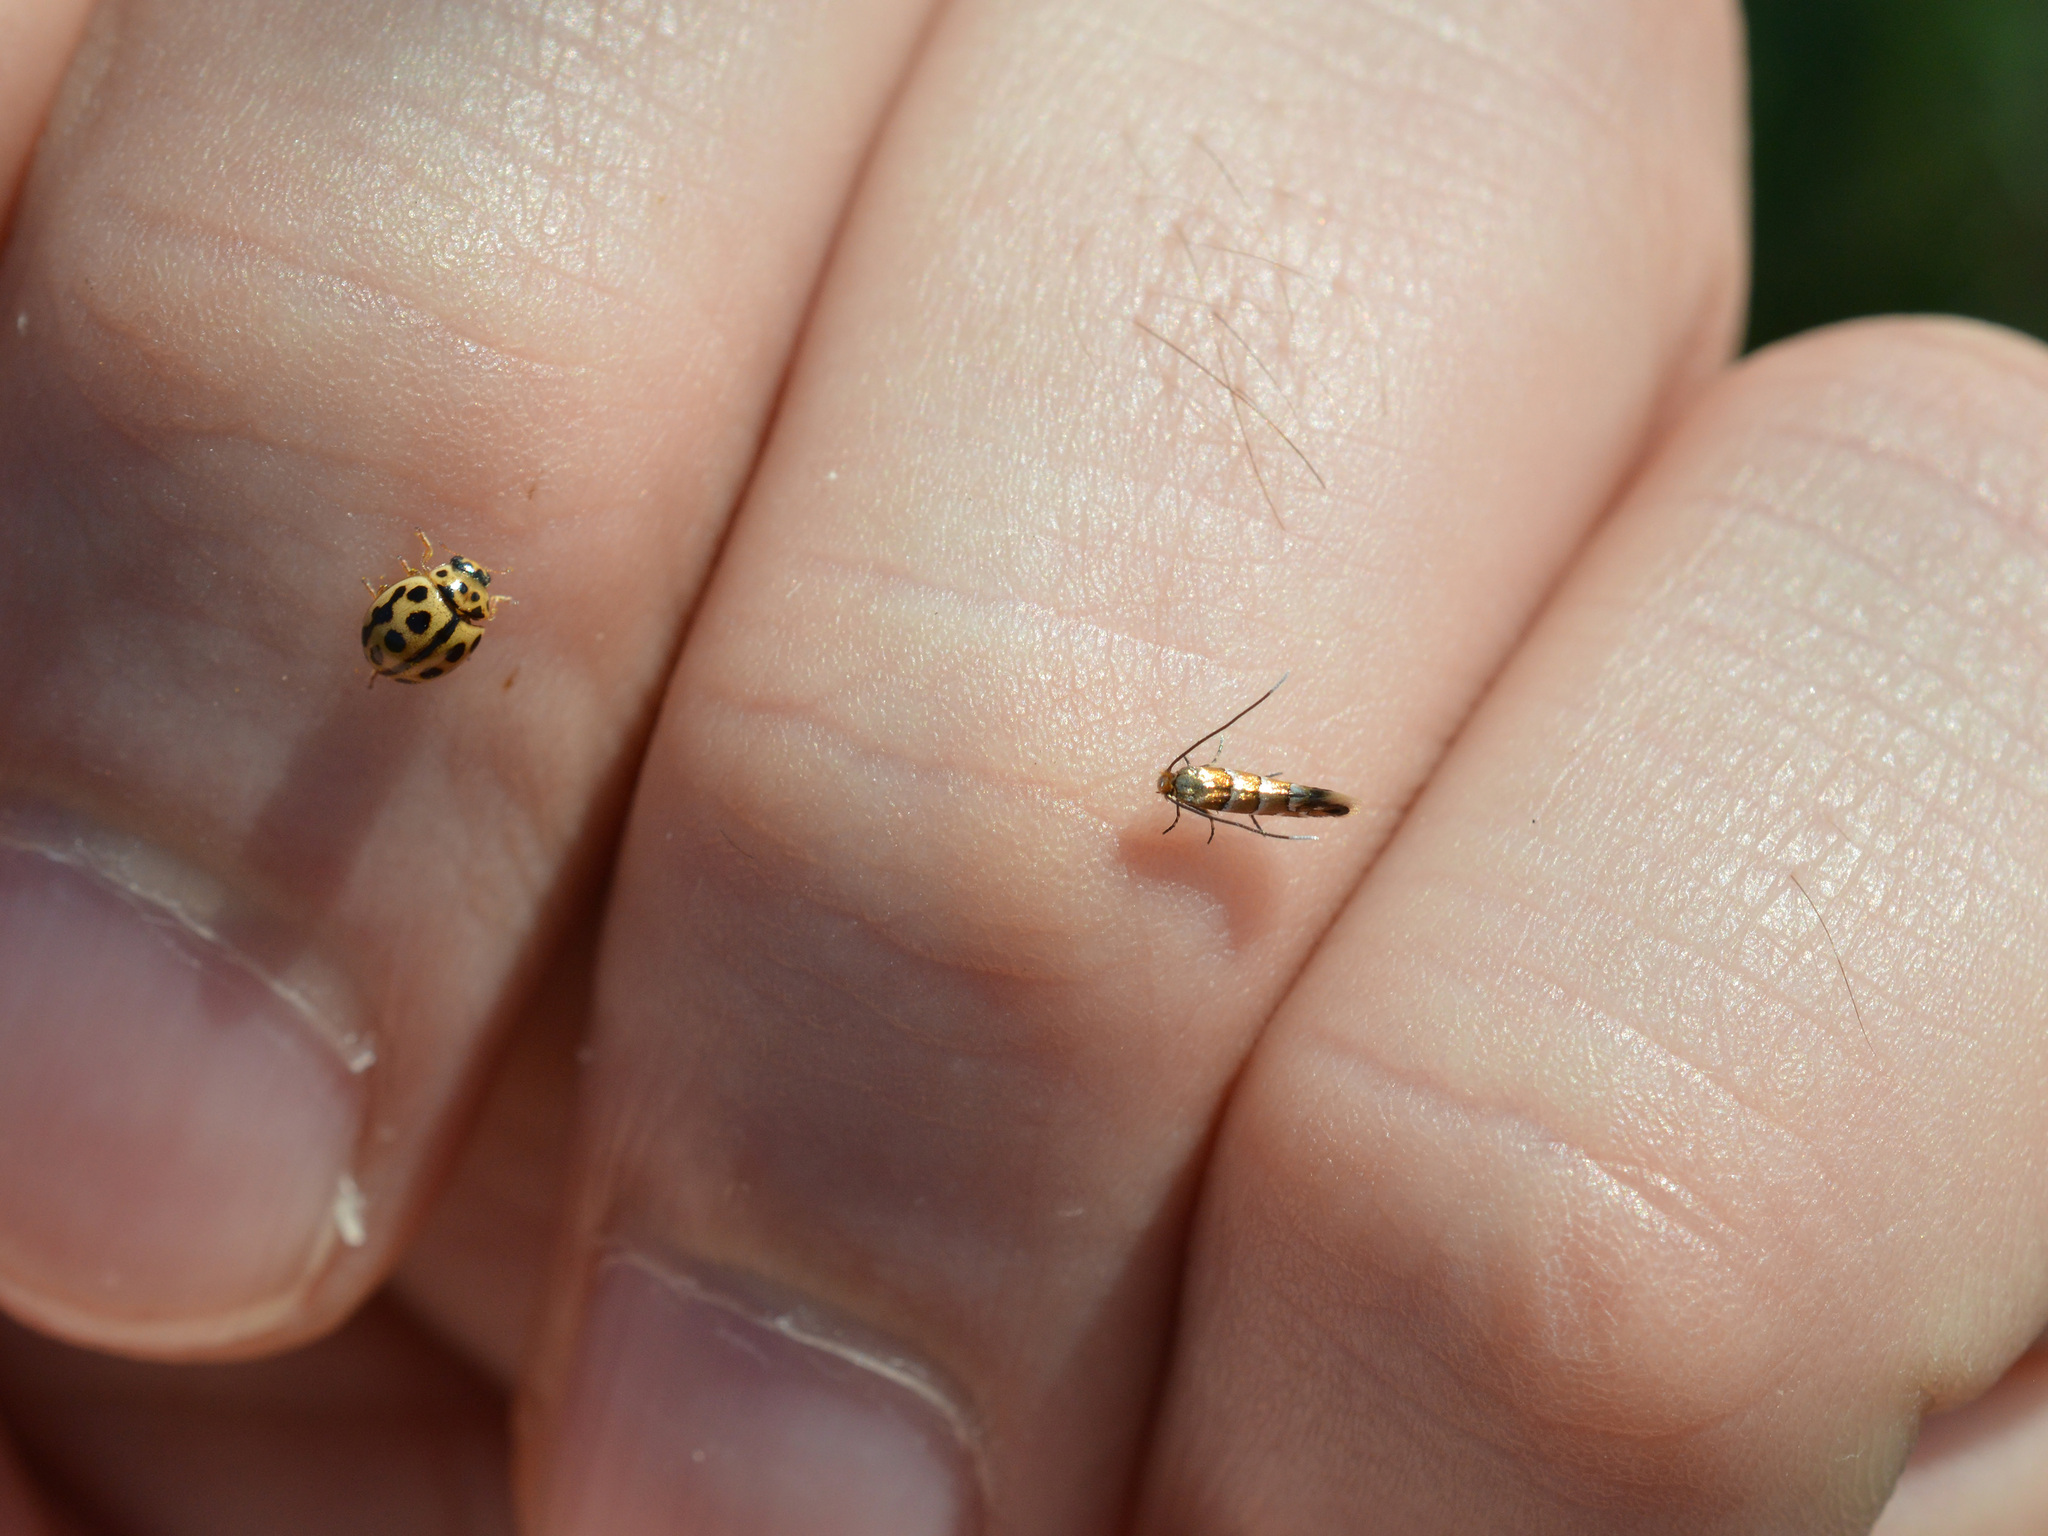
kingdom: Animalia
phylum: Arthropoda
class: Insecta
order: Lepidoptera
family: Gracillariidae
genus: Phyllonorycter
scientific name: Phyllonorycter klemannella
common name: Dark alder midget
